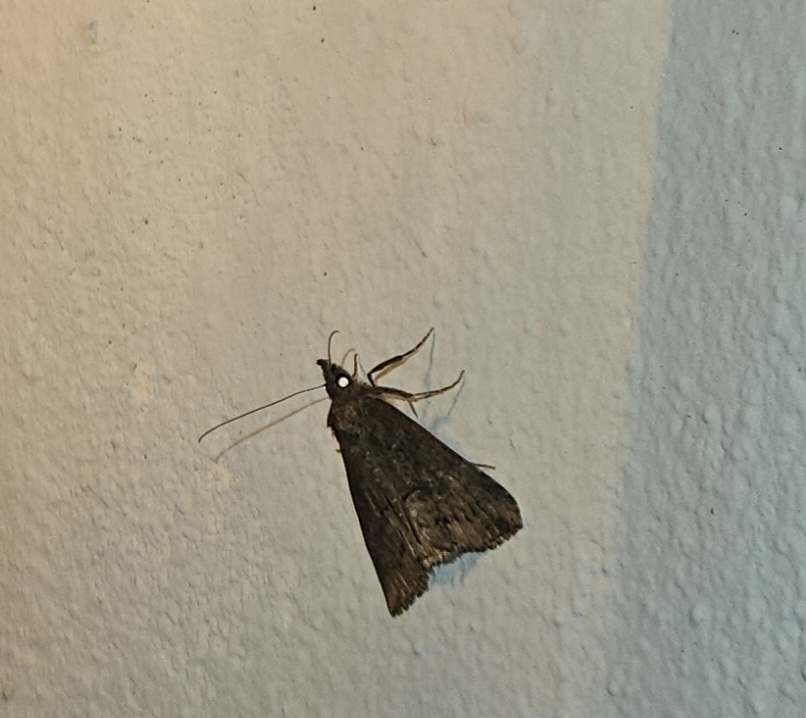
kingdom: Animalia
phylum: Arthropoda
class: Insecta
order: Lepidoptera
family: Erebidae
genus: Hypena
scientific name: Hypena scabra
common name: Green cloverworm
